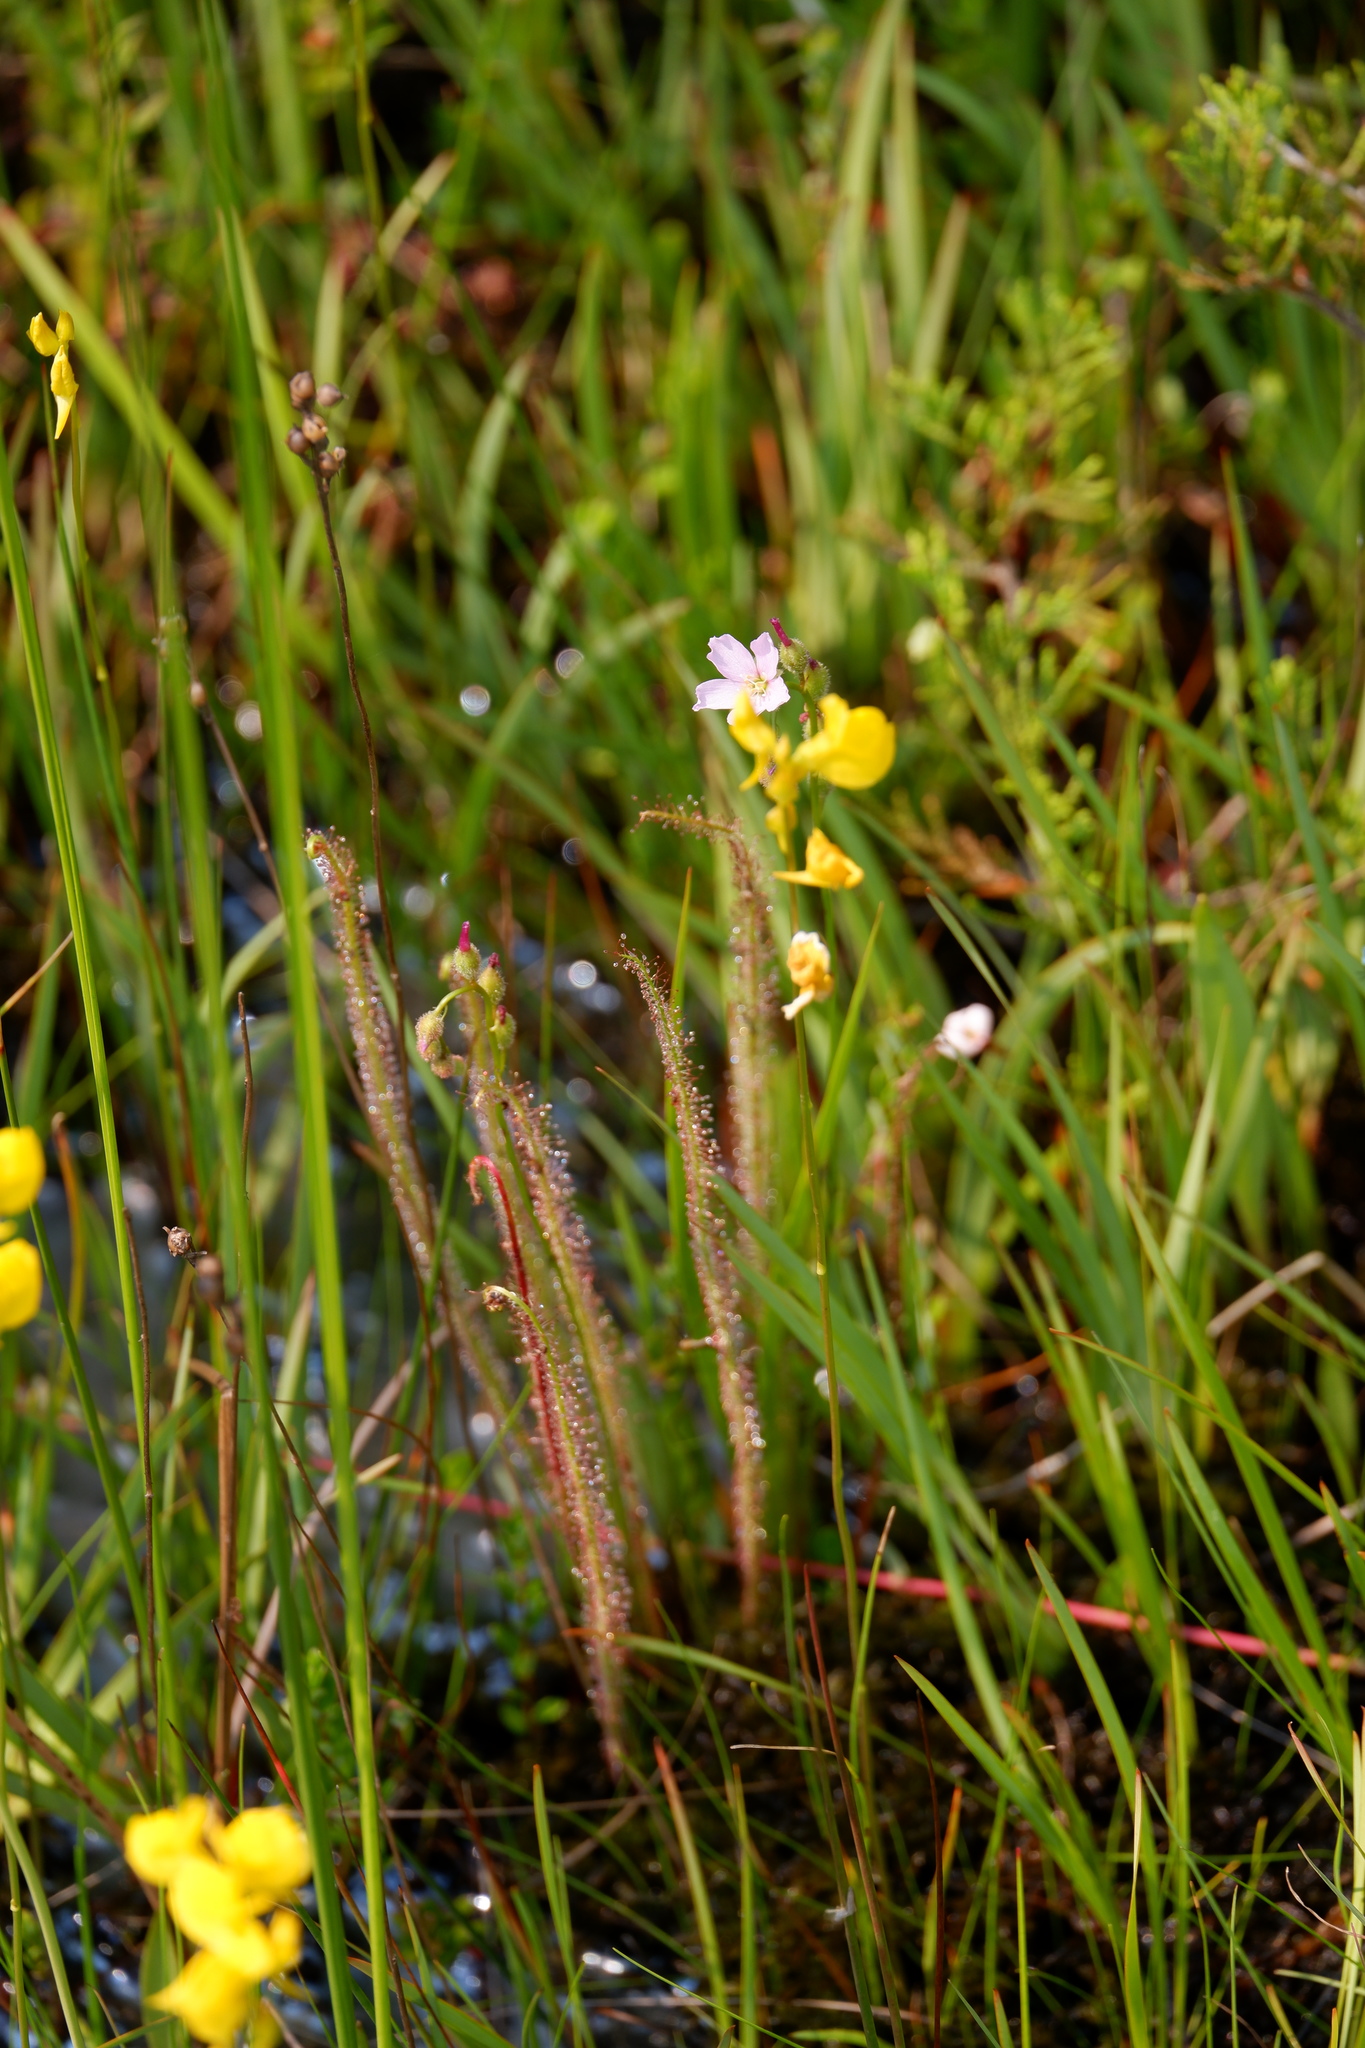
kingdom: Plantae
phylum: Tracheophyta
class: Magnoliopsida
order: Caryophyllales
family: Droseraceae
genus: Drosera
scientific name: Drosera filiformis
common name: Dew-thread
